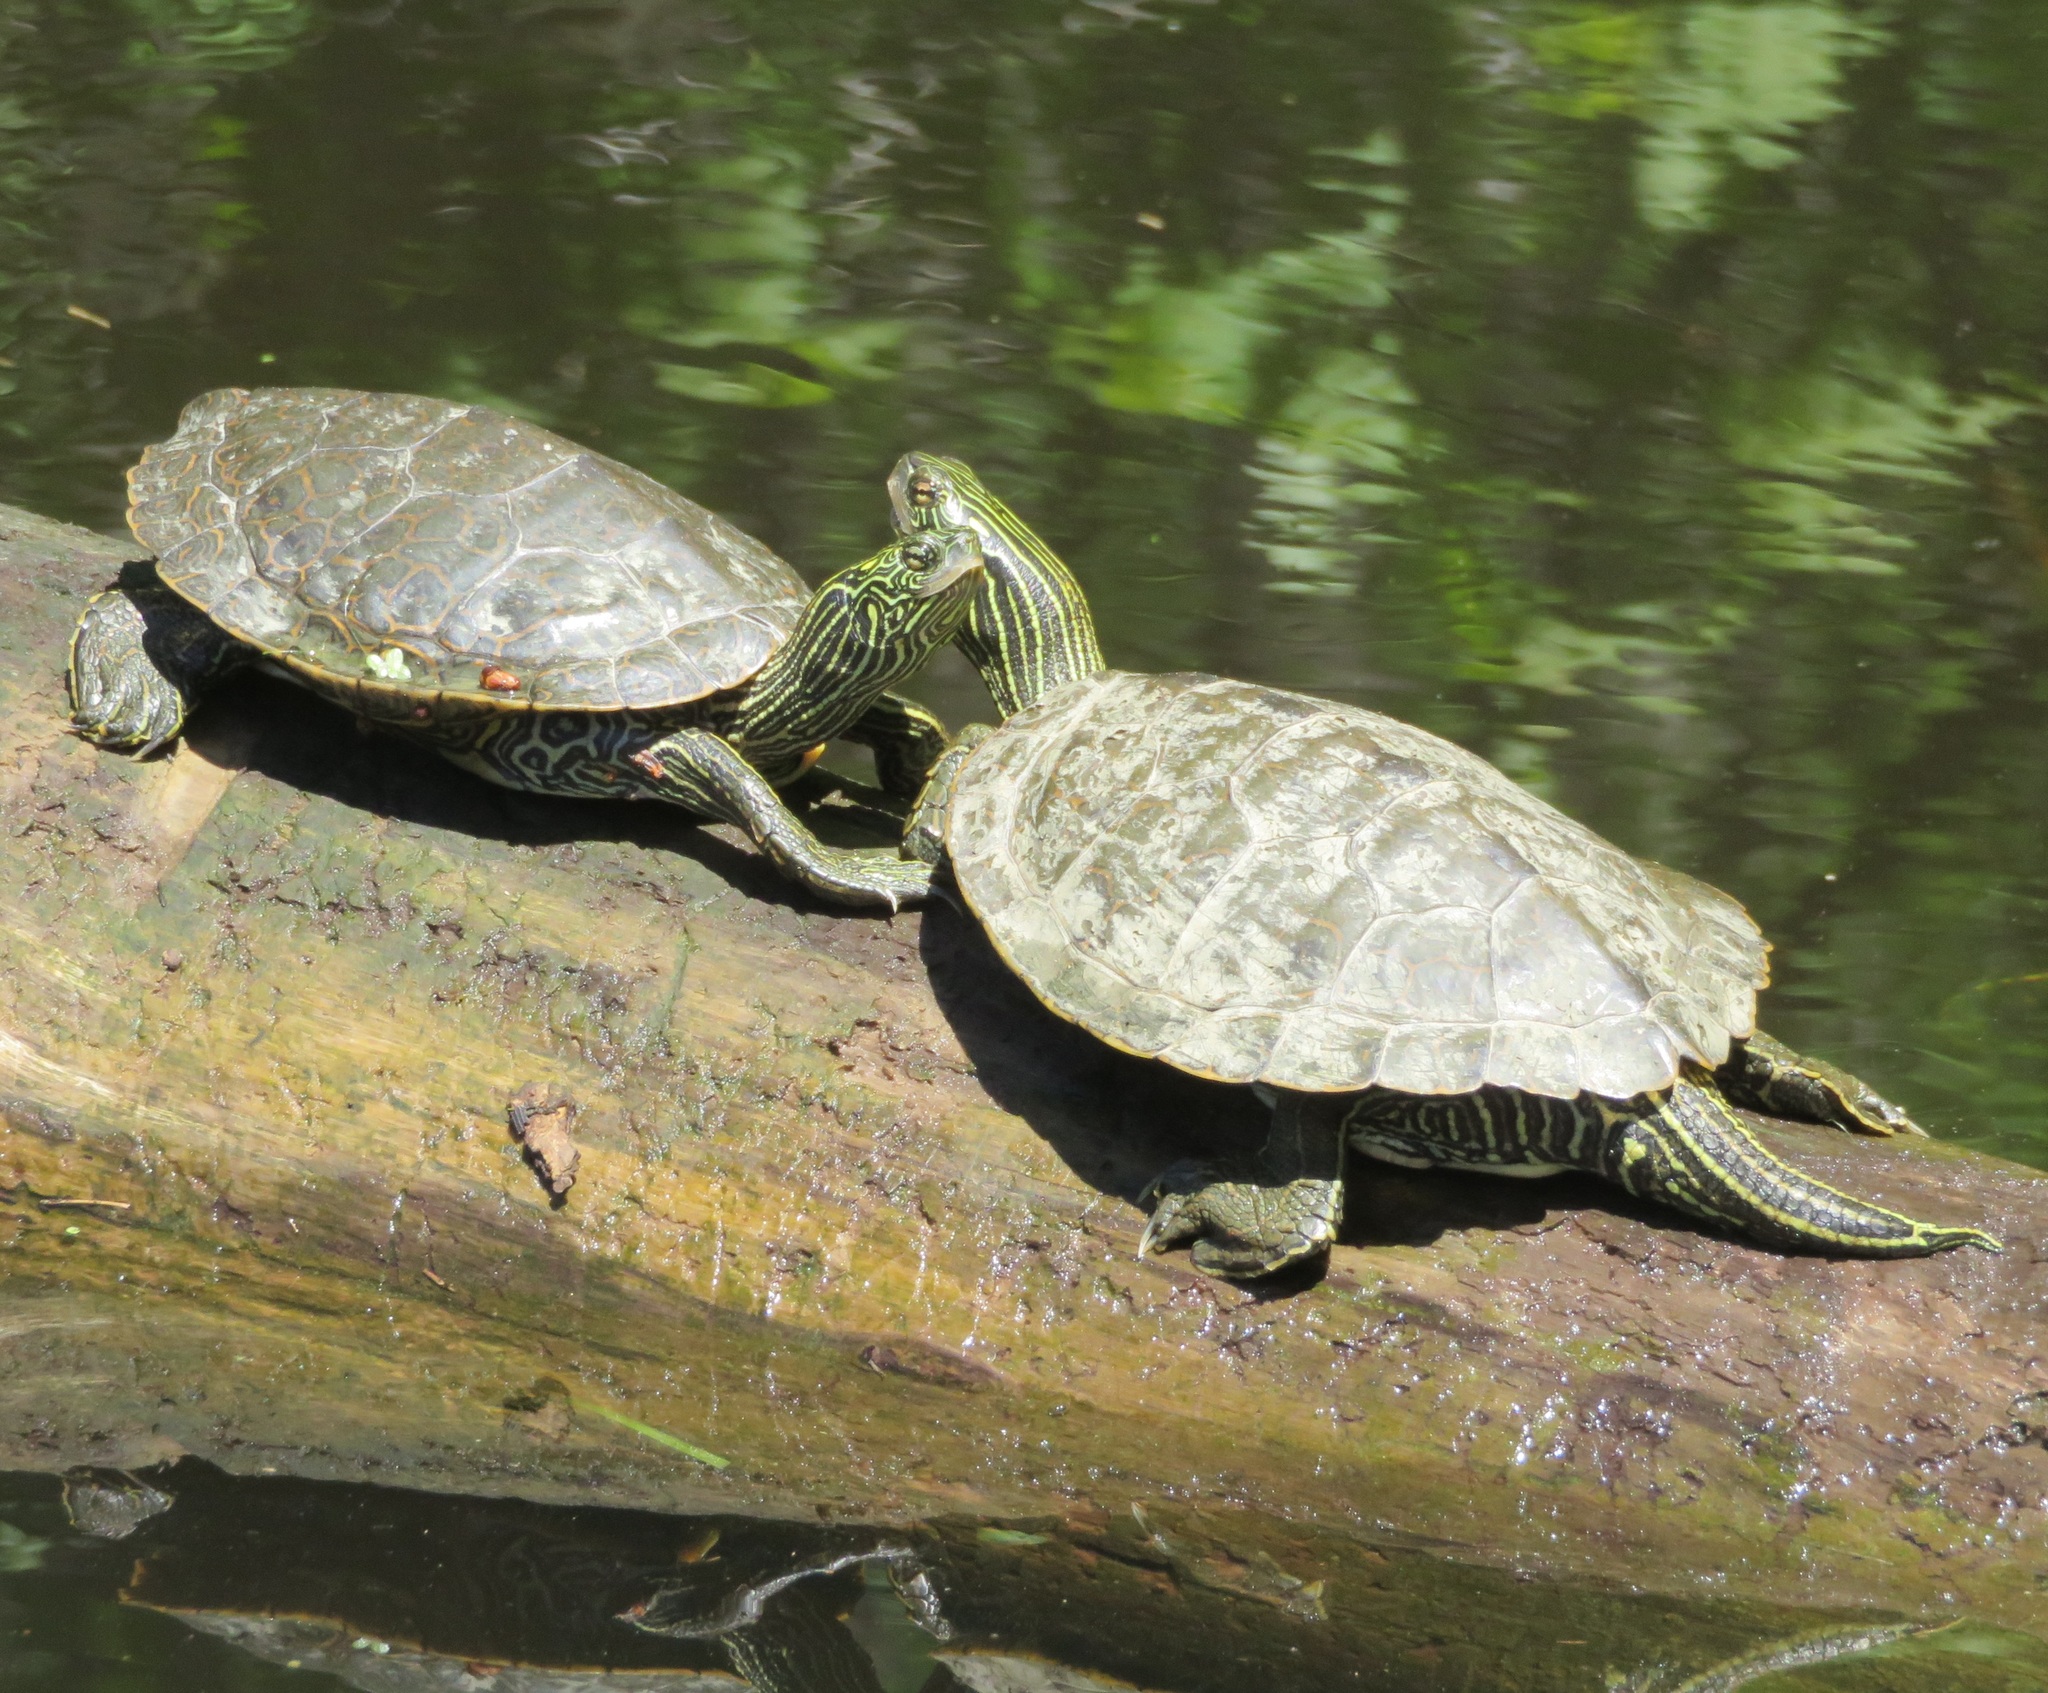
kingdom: Animalia
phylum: Chordata
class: Testudines
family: Emydidae
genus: Graptemys
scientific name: Graptemys geographica
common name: Common map turtle
